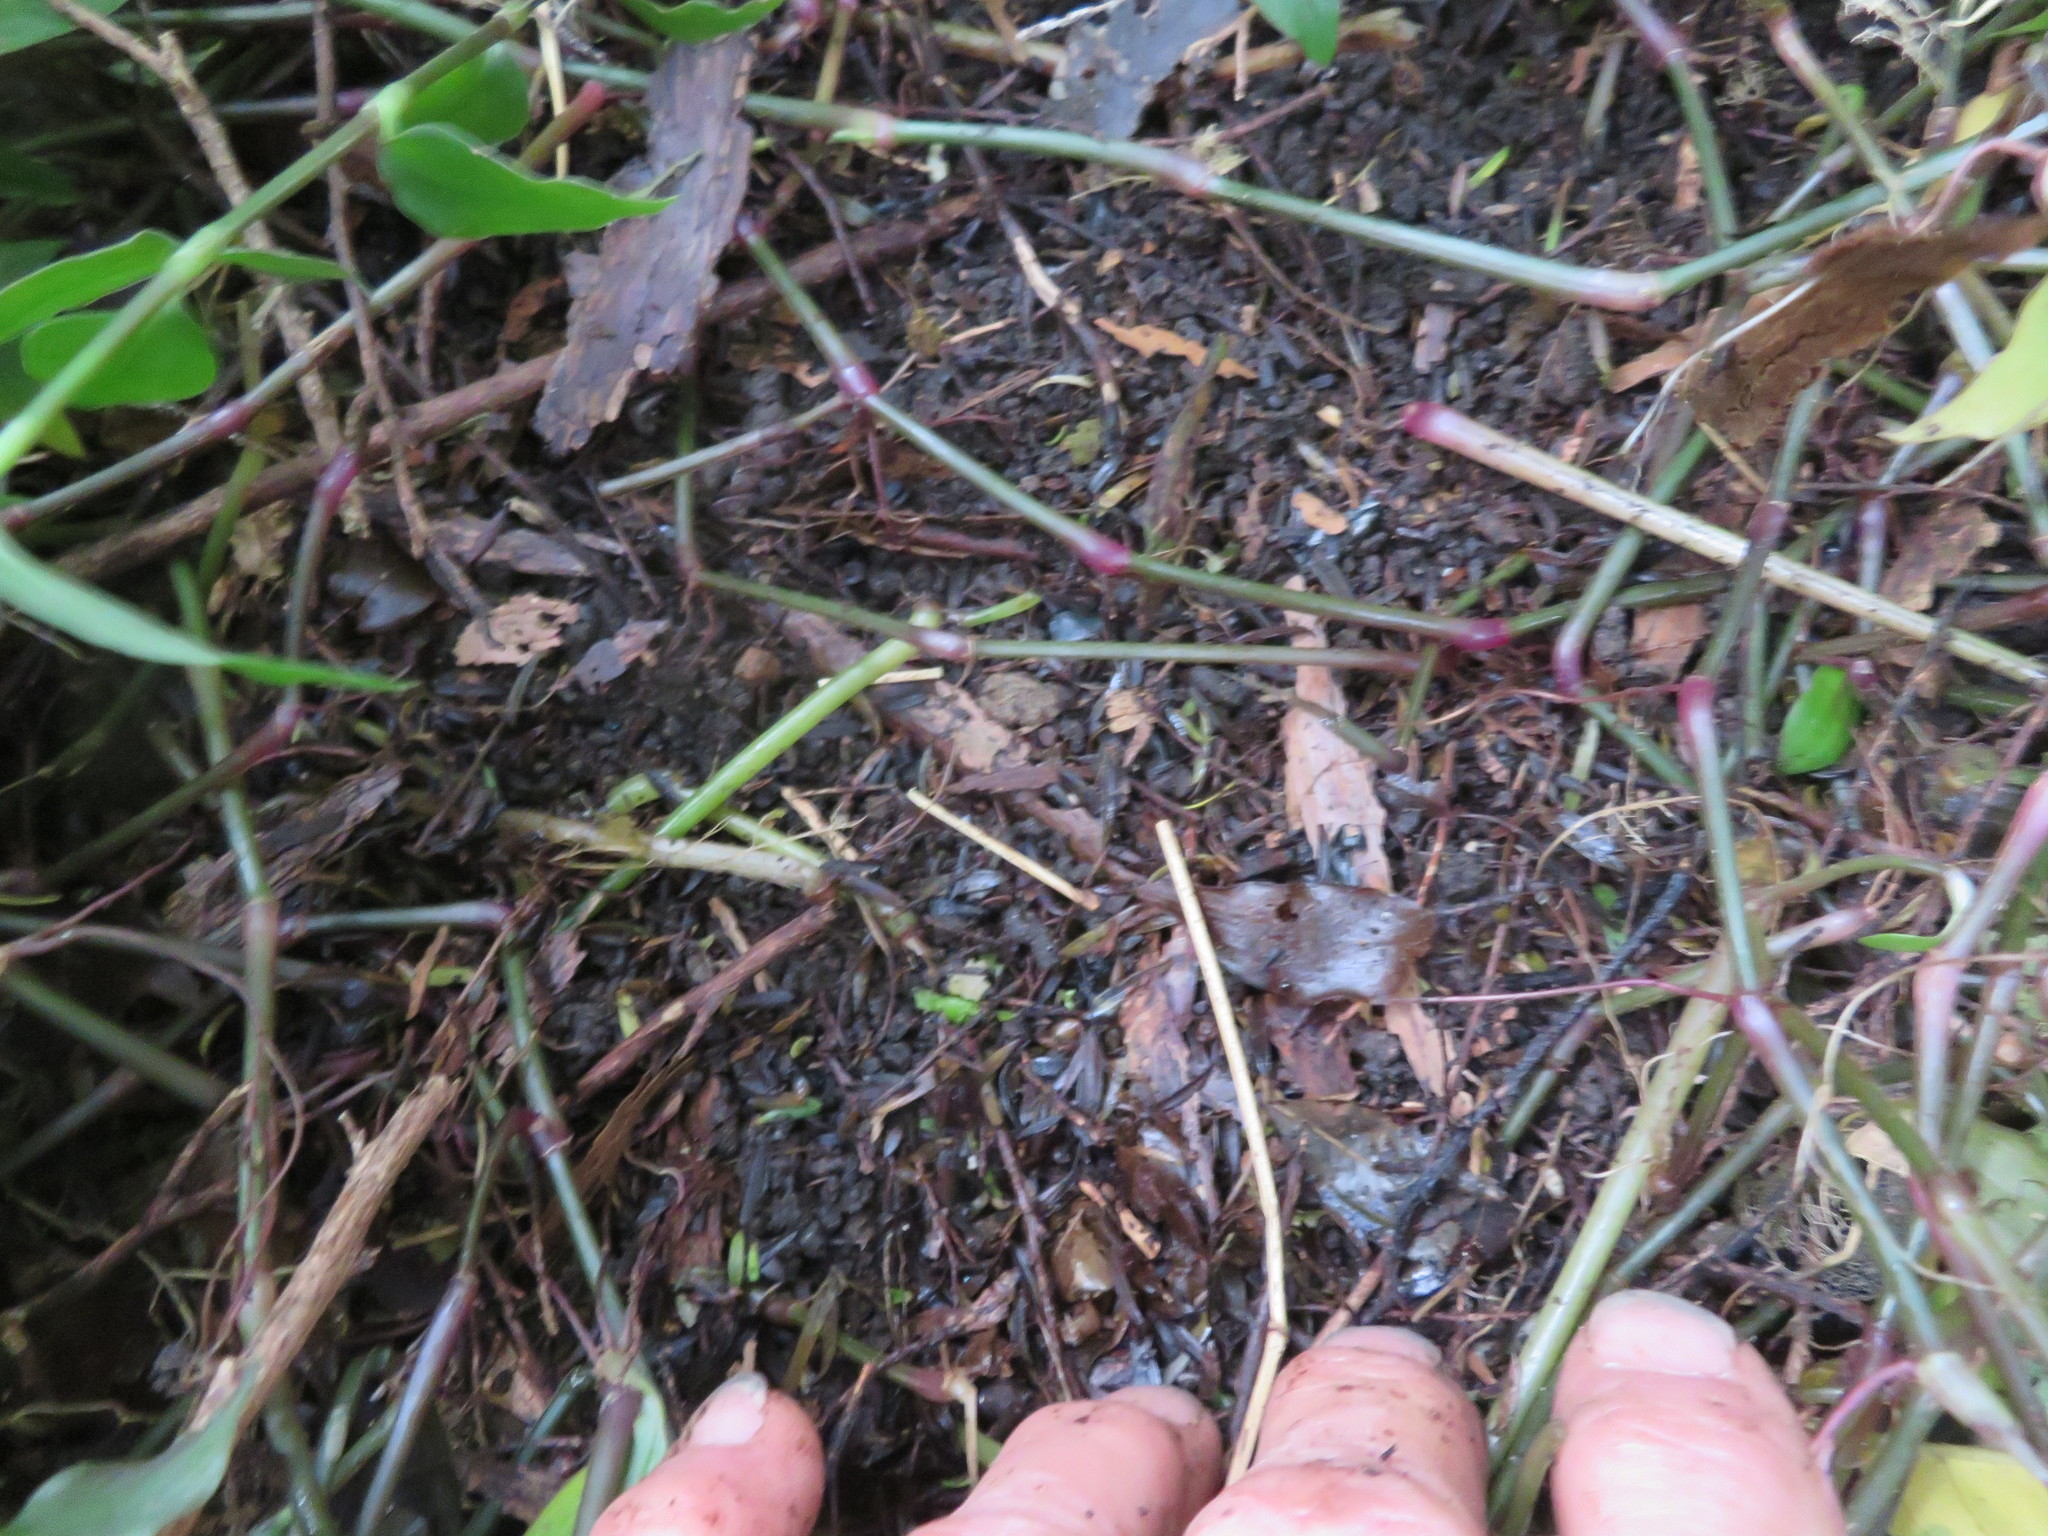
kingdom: Plantae
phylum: Tracheophyta
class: Liliopsida
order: Commelinales
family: Commelinaceae
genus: Tradescantia
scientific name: Tradescantia fluminensis
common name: Wandering-jew
